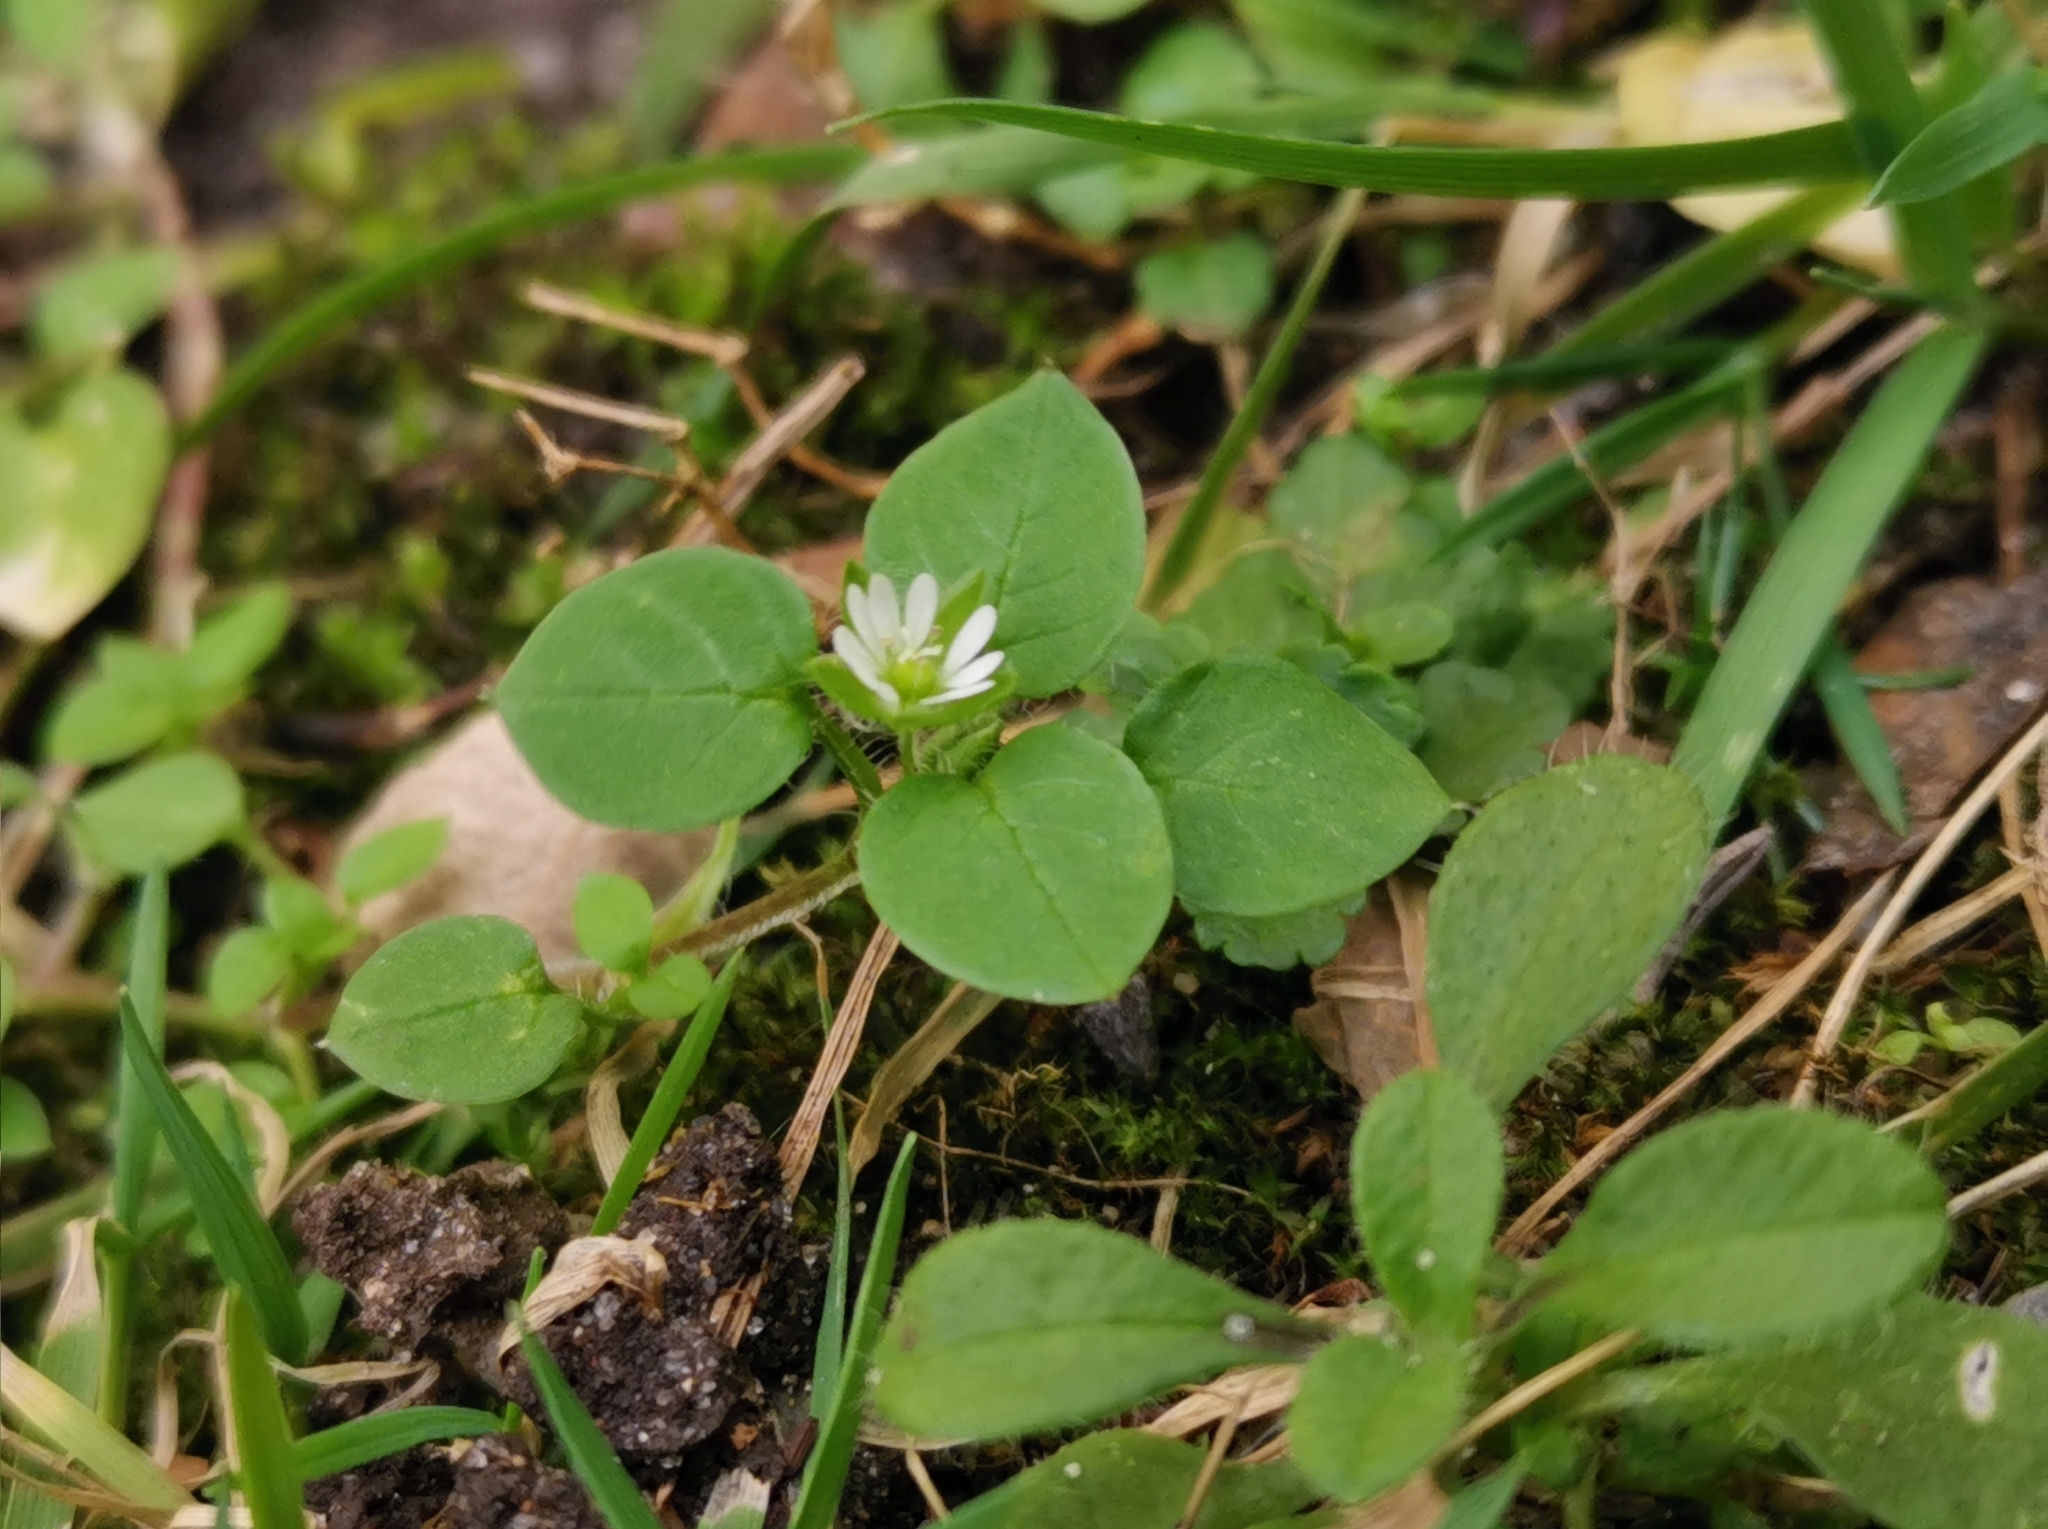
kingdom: Plantae
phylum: Tracheophyta
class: Magnoliopsida
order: Caryophyllales
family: Caryophyllaceae
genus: Stellaria
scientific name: Stellaria media
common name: Common chickweed
